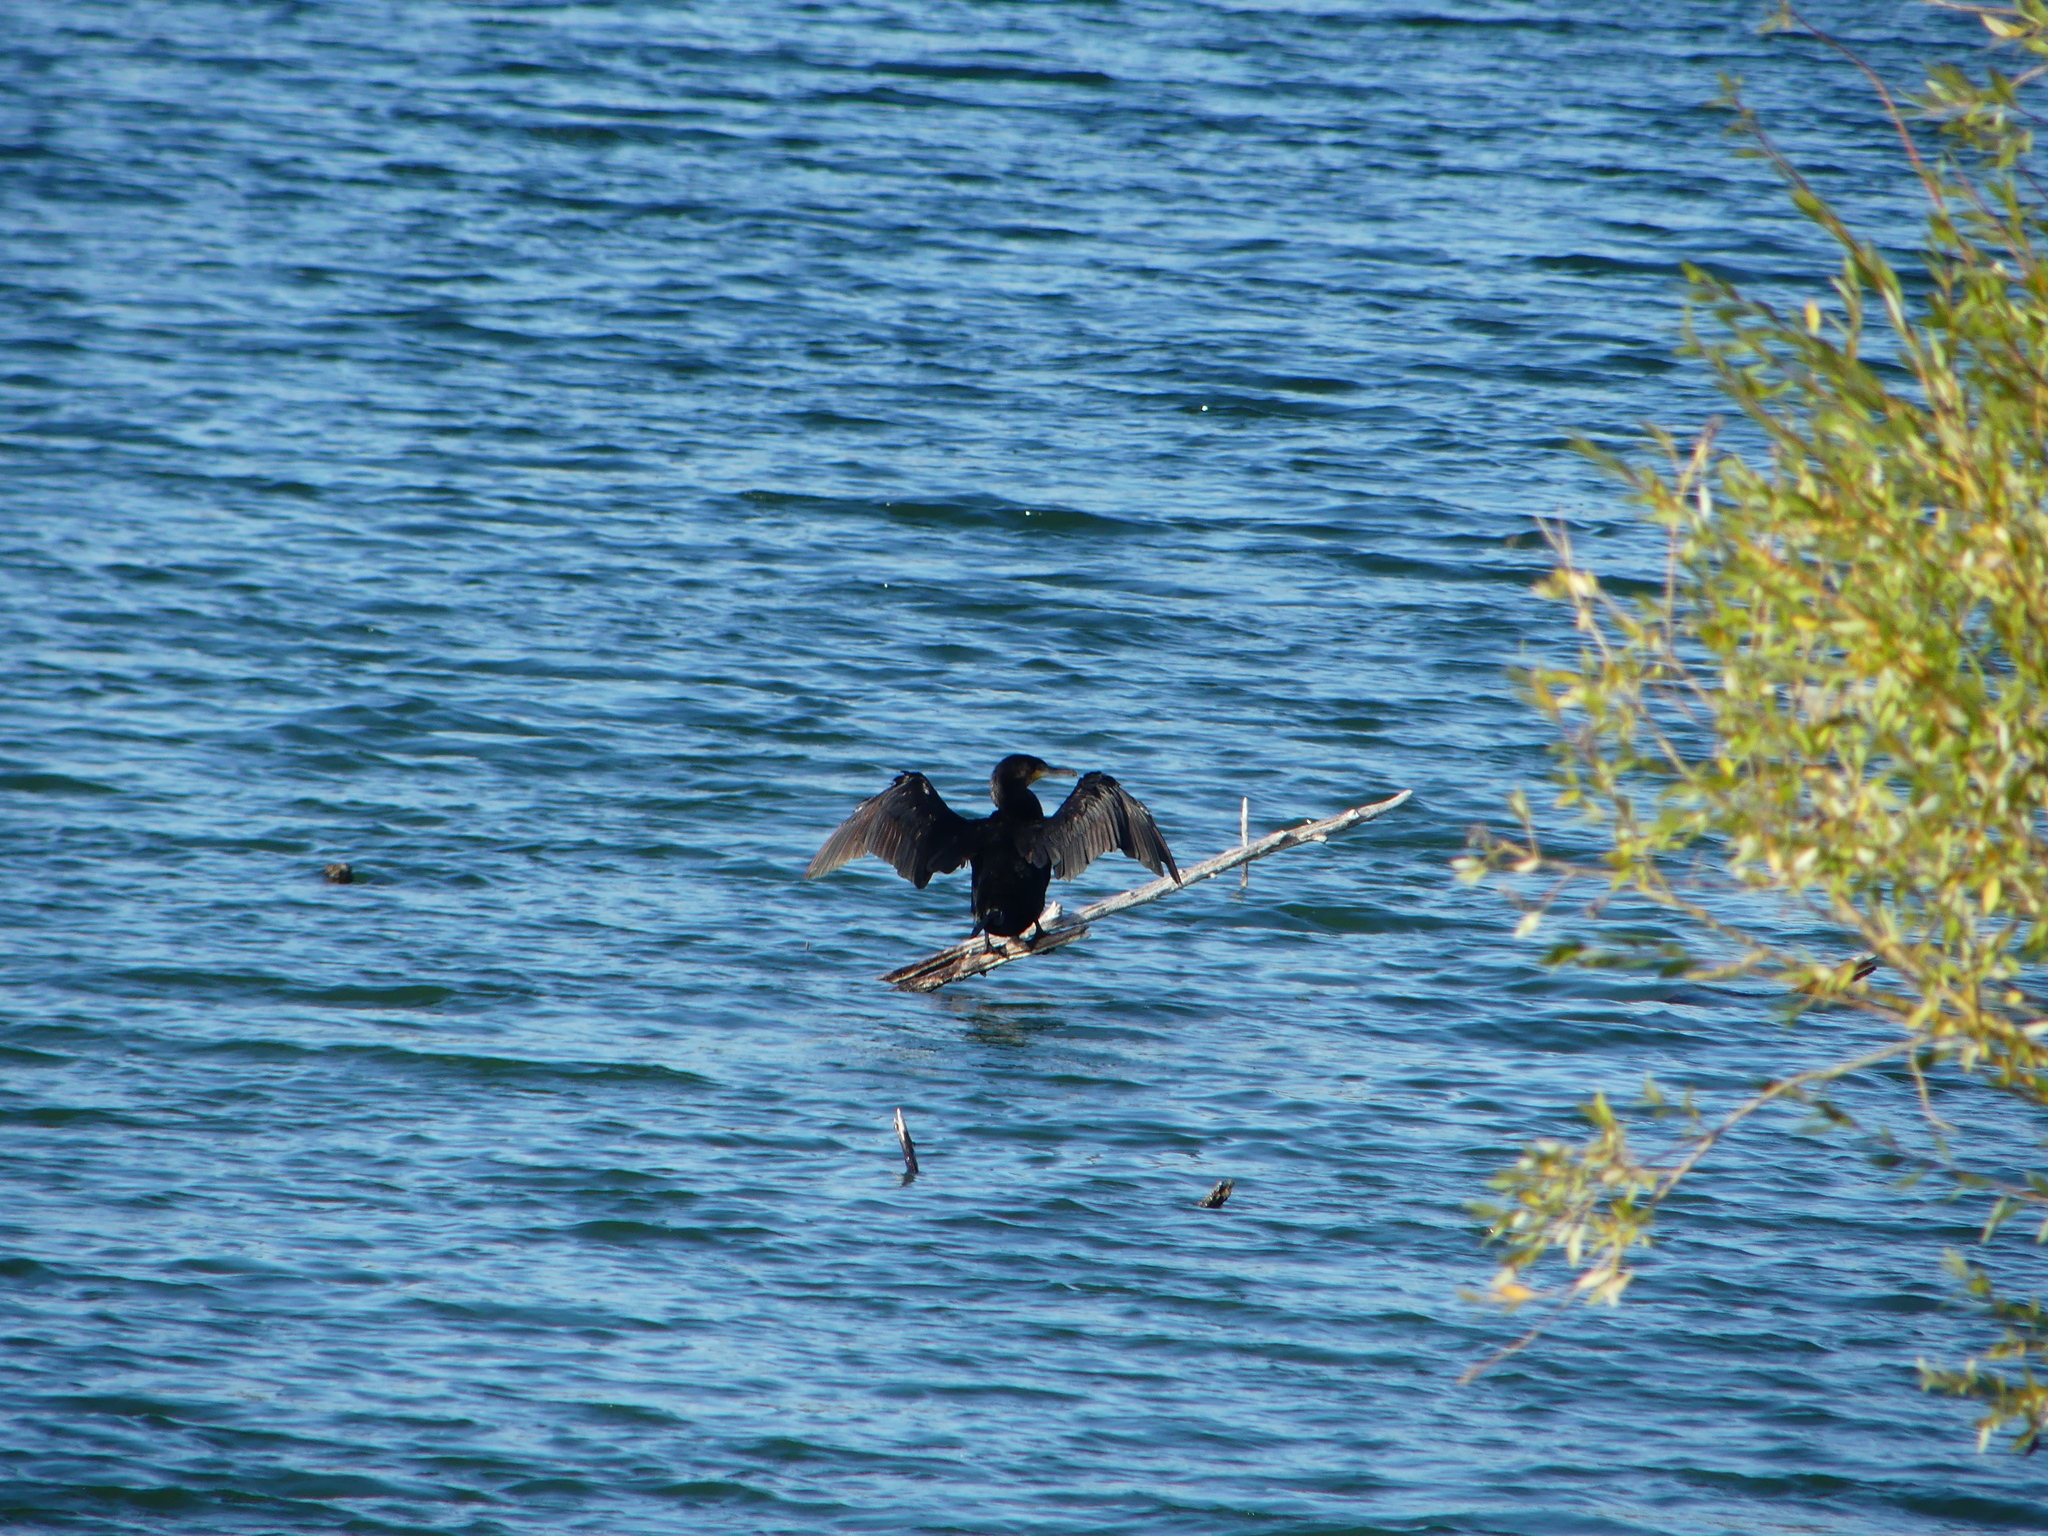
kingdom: Animalia
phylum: Chordata
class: Aves
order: Suliformes
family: Phalacrocoracidae
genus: Phalacrocorax
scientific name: Phalacrocorax carbo
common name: Great cormorant
